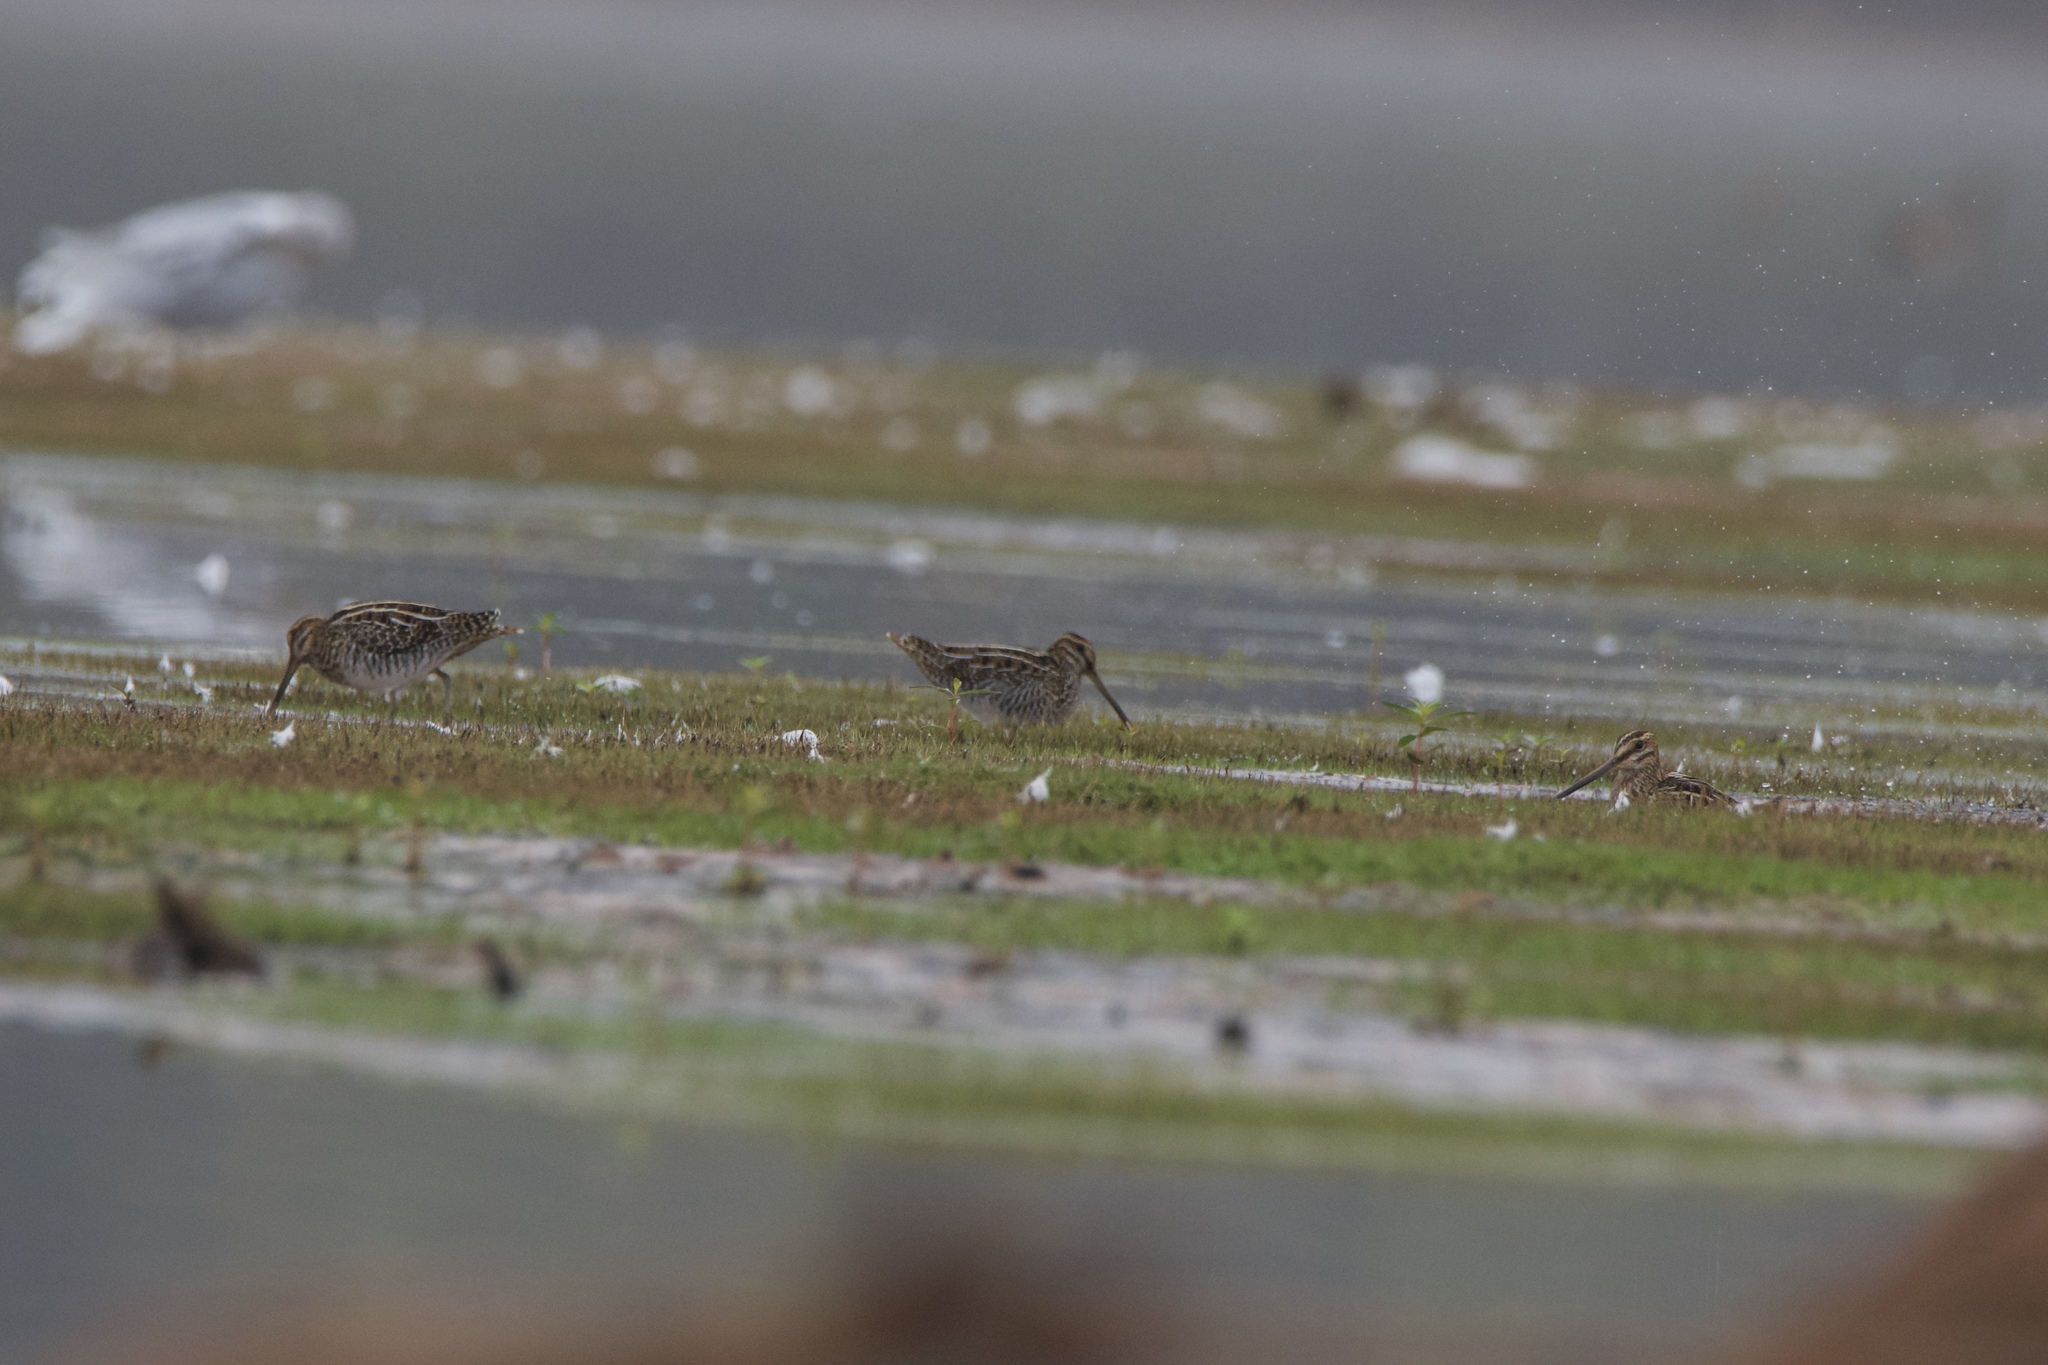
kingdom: Animalia
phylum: Chordata
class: Aves
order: Charadriiformes
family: Scolopacidae
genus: Gallinago
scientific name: Gallinago delicata
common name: Wilson's snipe
